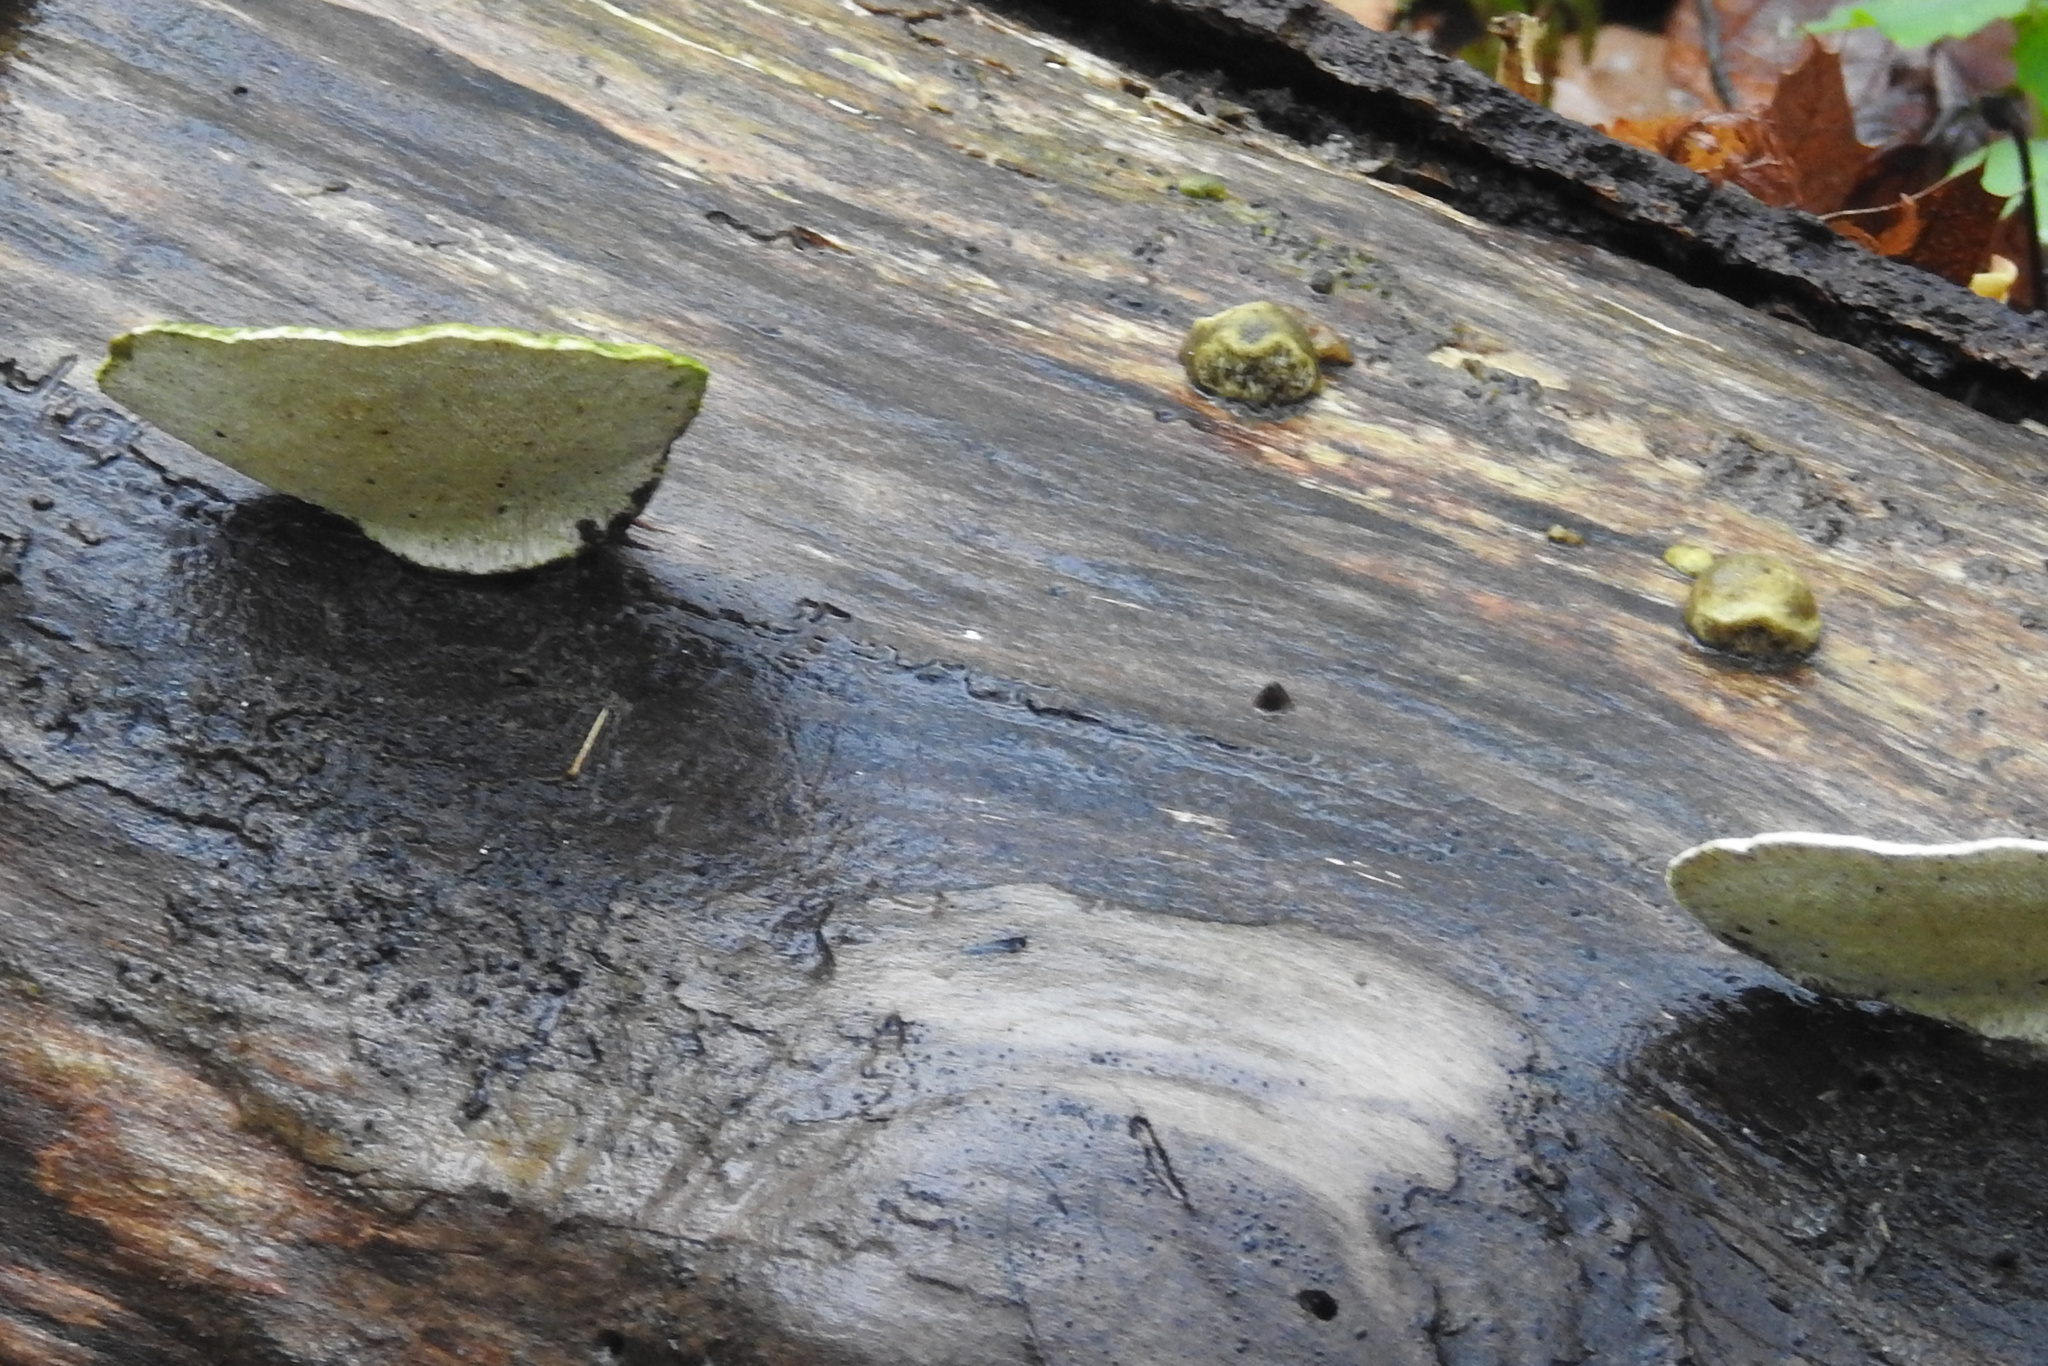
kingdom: Fungi
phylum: Basidiomycota
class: Agaricomycetes
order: Polyporales
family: Polyporaceae
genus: Trametes
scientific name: Trametes gibbosa
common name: Lumpy bracket
